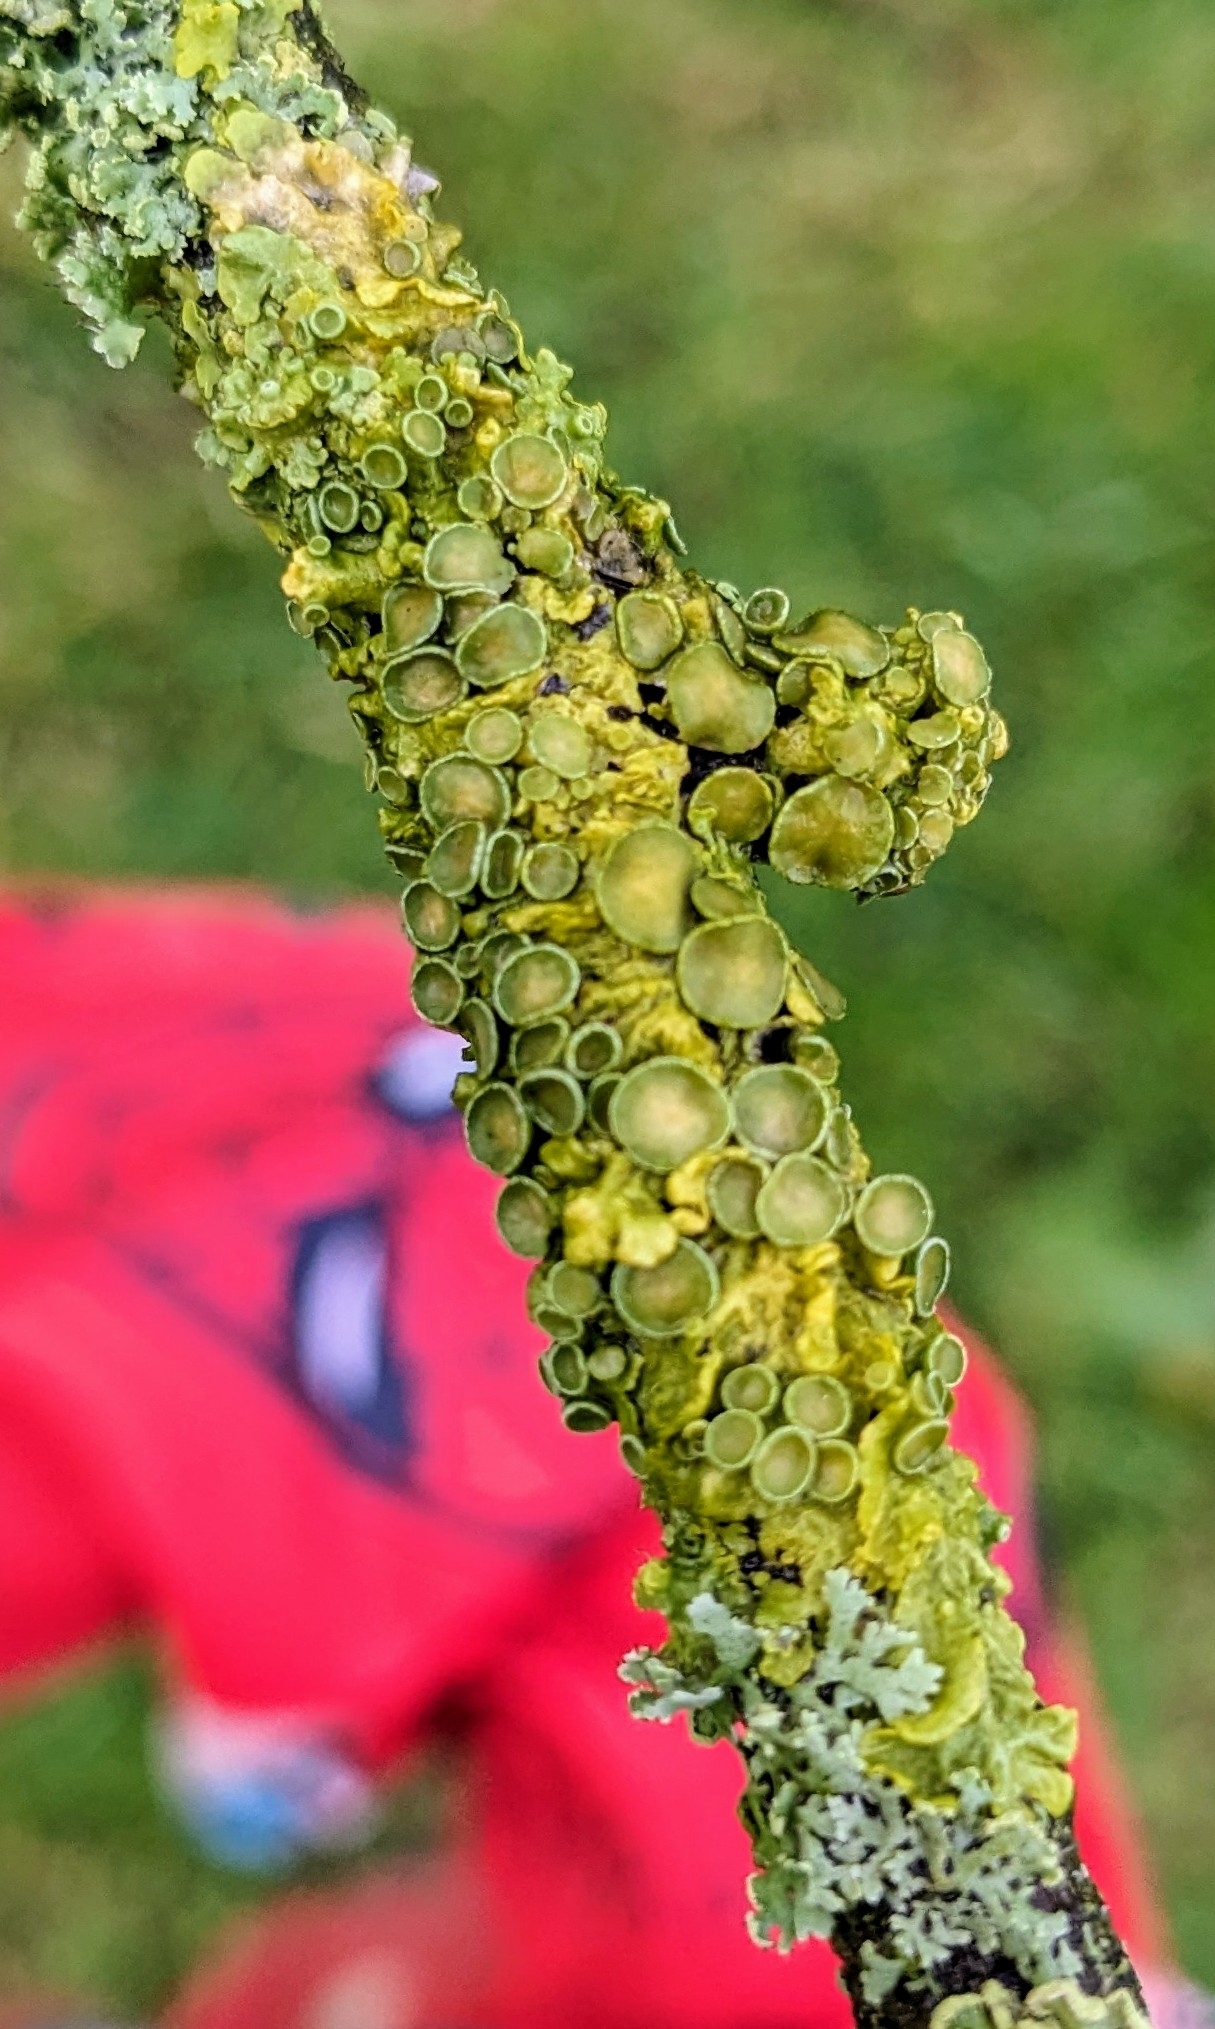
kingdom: Fungi
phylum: Ascomycota
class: Lecanoromycetes
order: Teloschistales
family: Teloschistaceae
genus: Xanthoria
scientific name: Xanthoria parietina
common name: Common orange lichen
